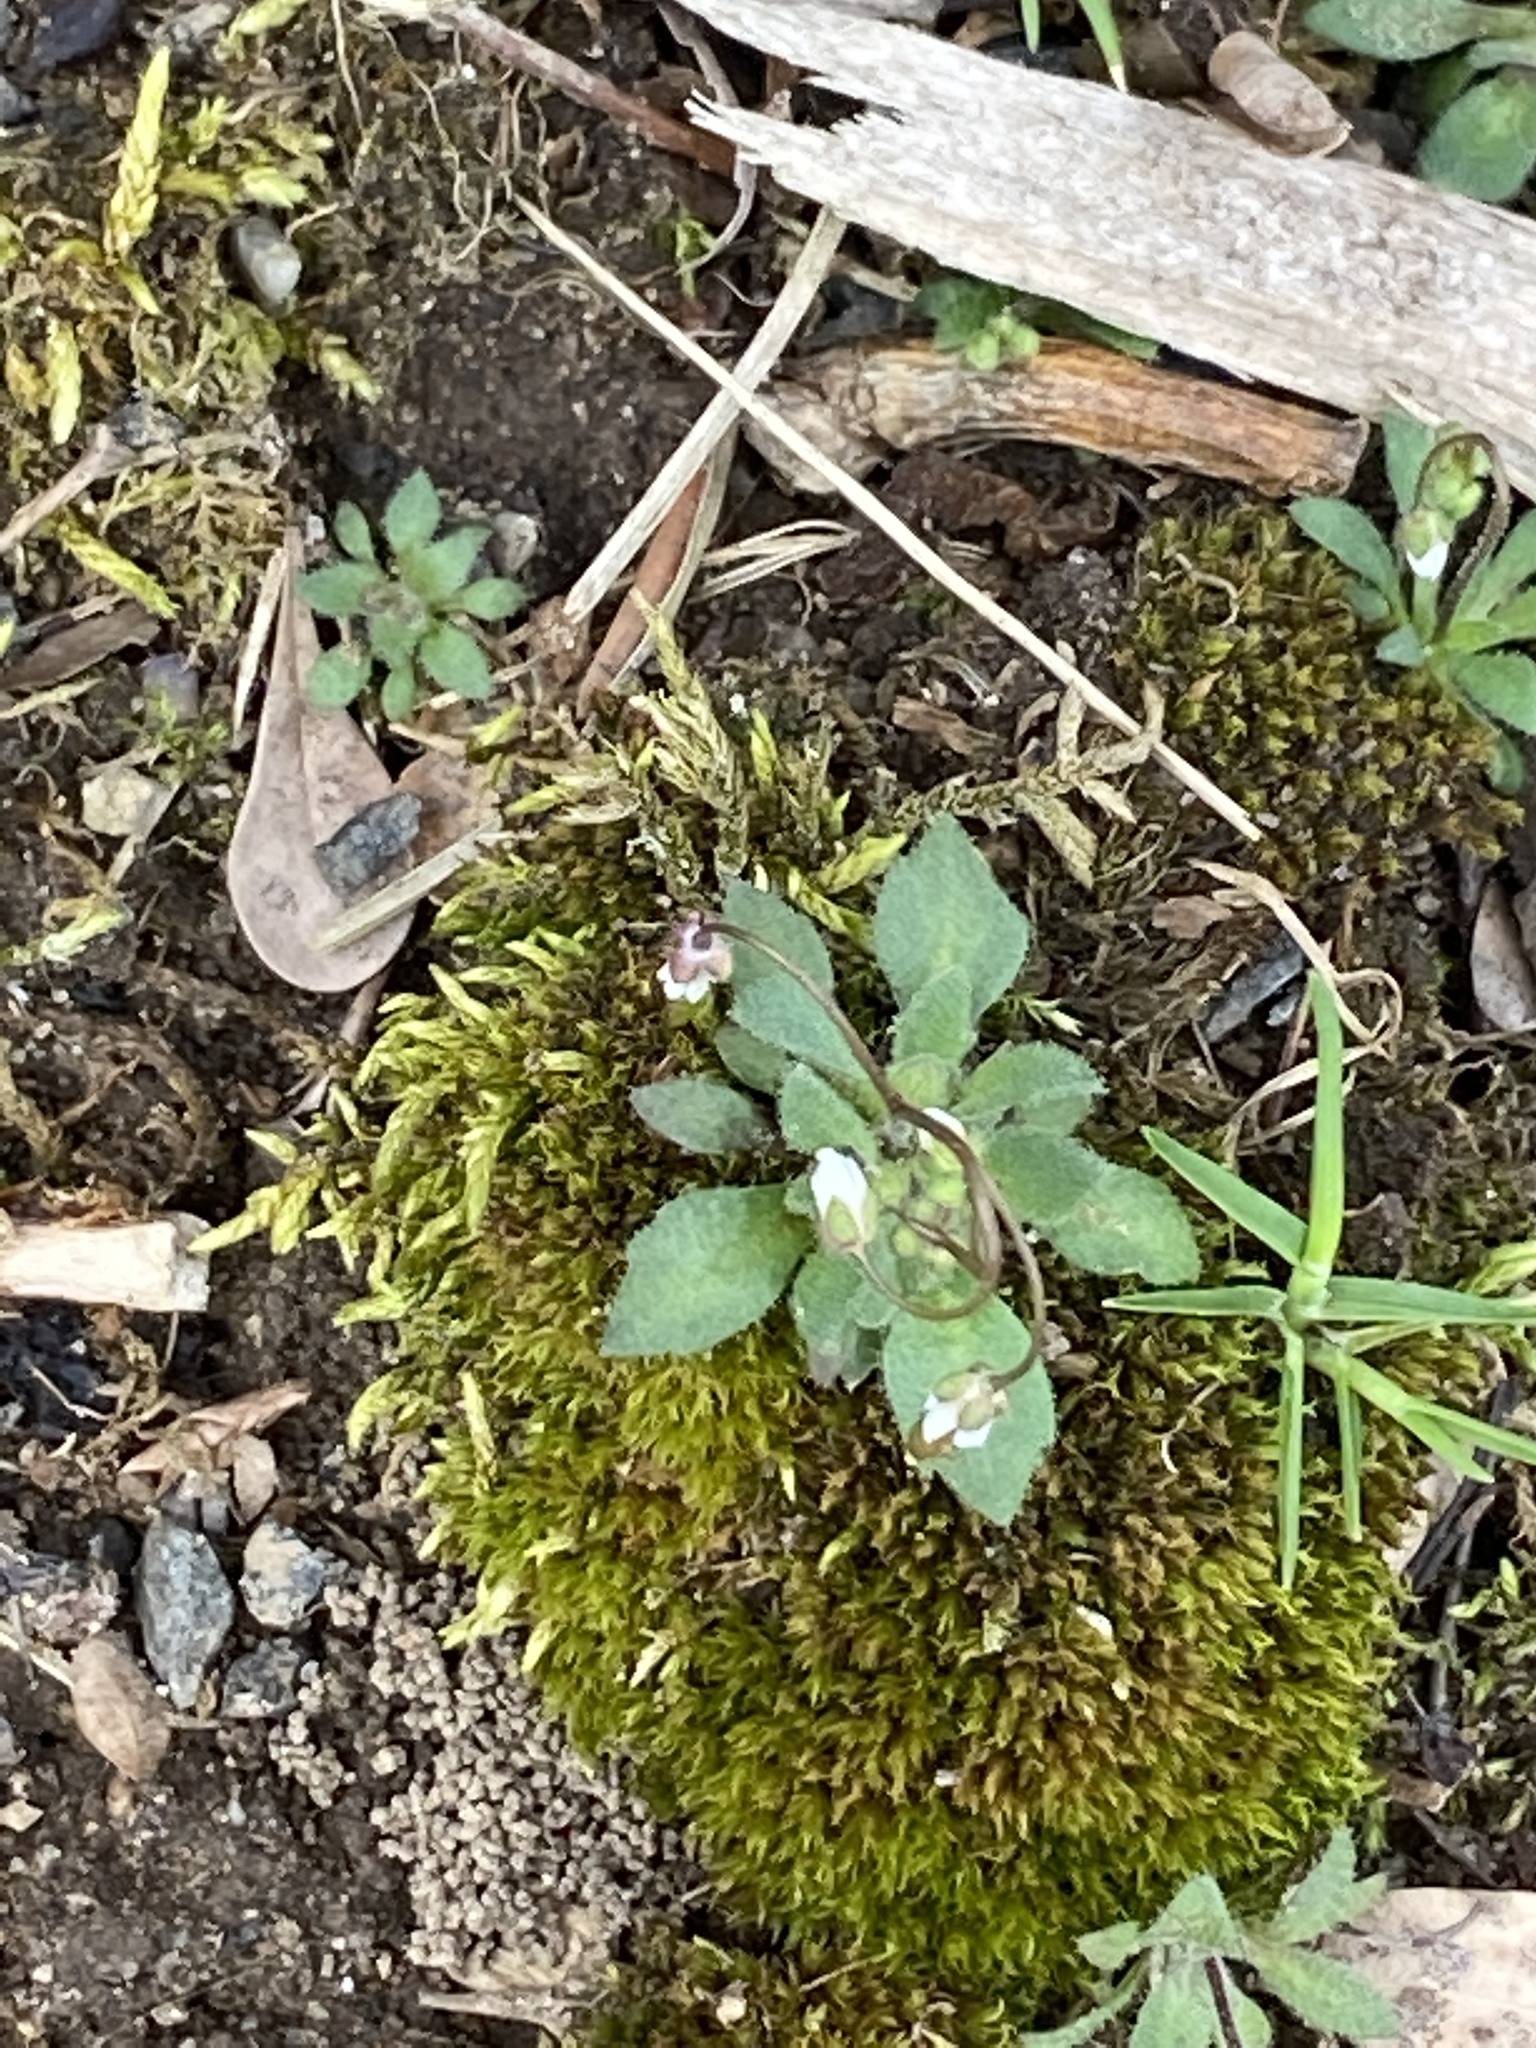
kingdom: Plantae
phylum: Tracheophyta
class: Magnoliopsida
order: Brassicales
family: Brassicaceae
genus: Draba
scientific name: Draba verna
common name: Spring draba
